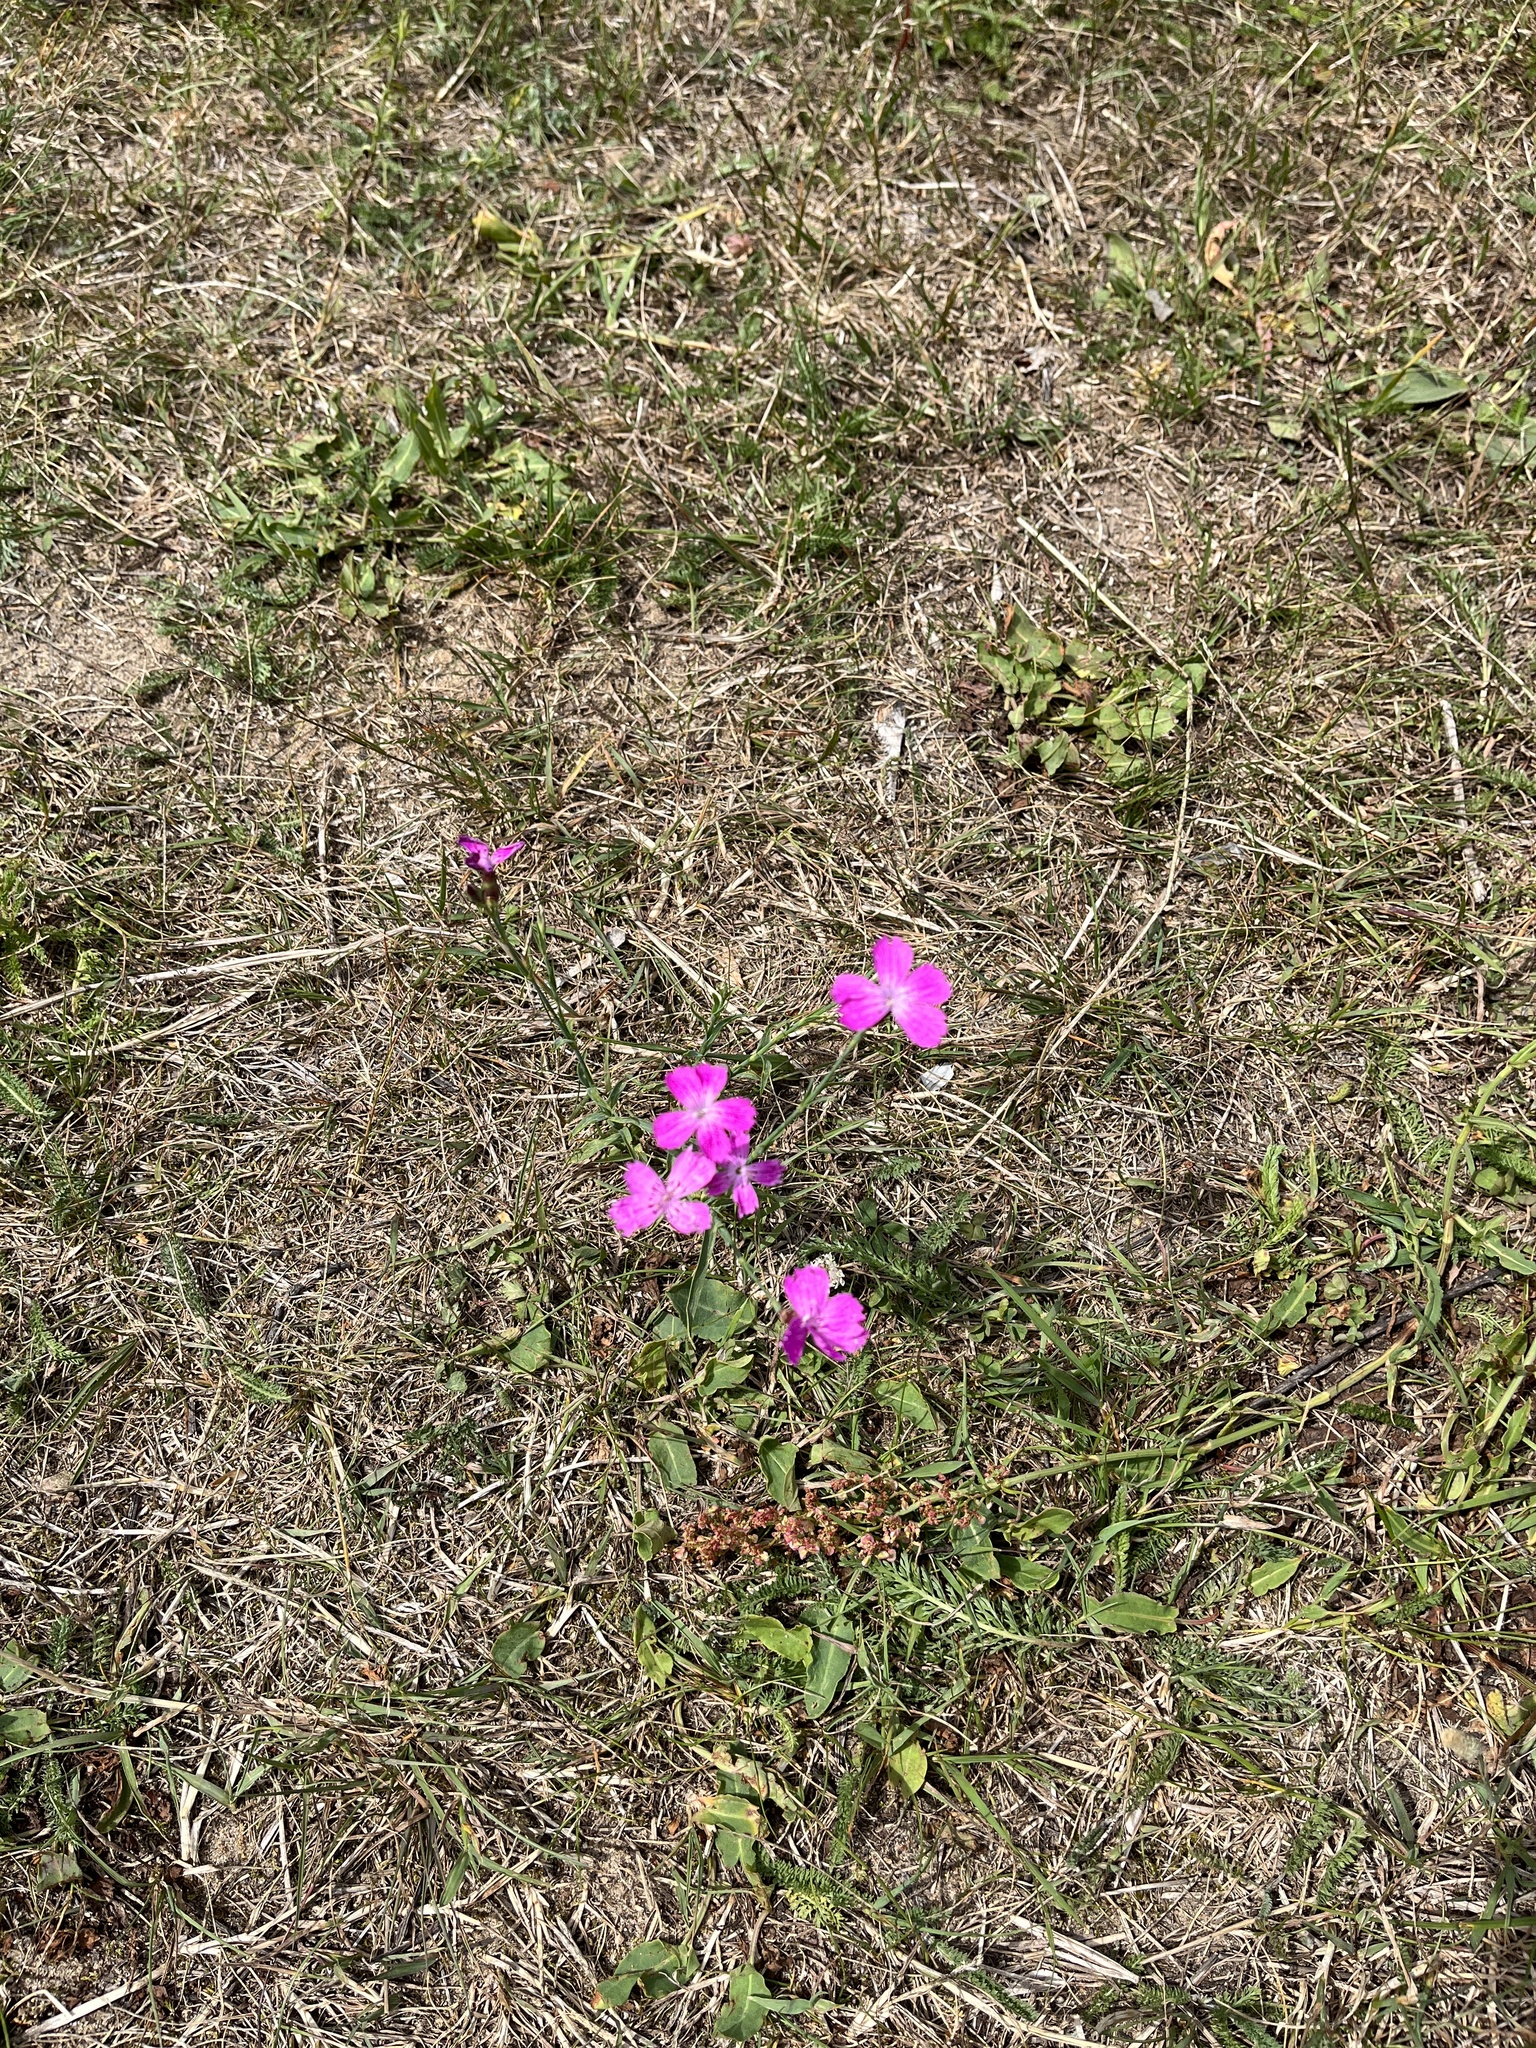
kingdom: Plantae
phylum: Tracheophyta
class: Magnoliopsida
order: Caryophyllales
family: Caryophyllaceae
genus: Dianthus
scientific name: Dianthus chinensis
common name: Rainbow pink
